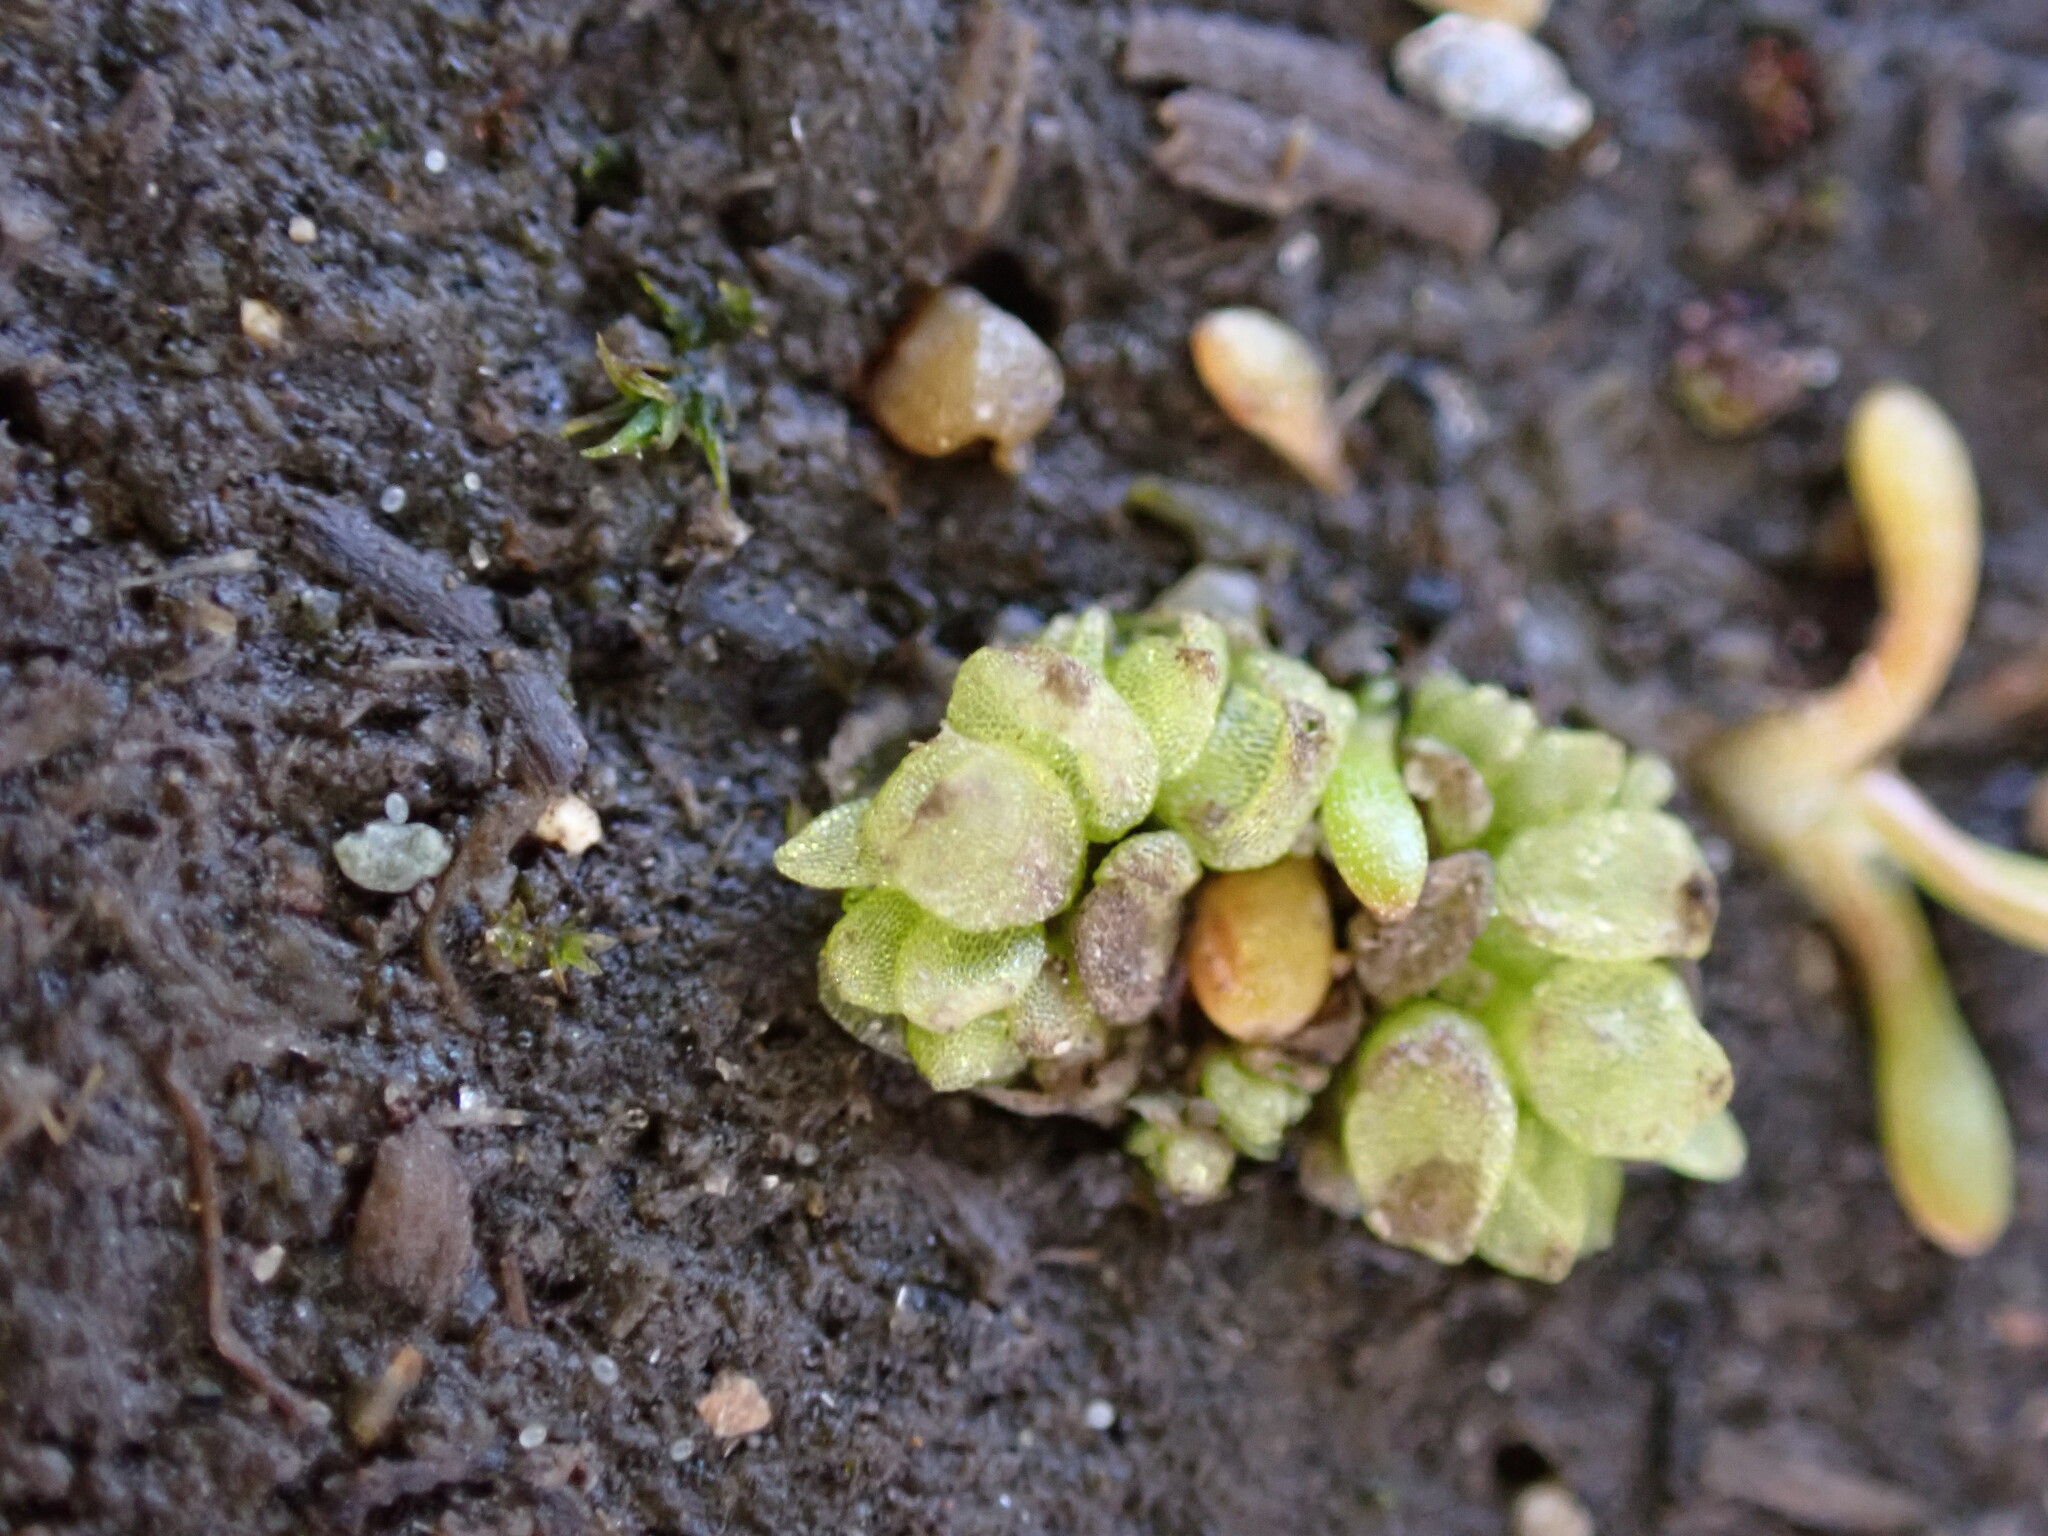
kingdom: Plantae
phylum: Marchantiophyta
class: Marchantiopsida
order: Sphaerocarpales
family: Sphaerocarpaceae
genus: Sphaerocarpos
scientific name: Sphaerocarpos texanus
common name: Texas balloonwort
